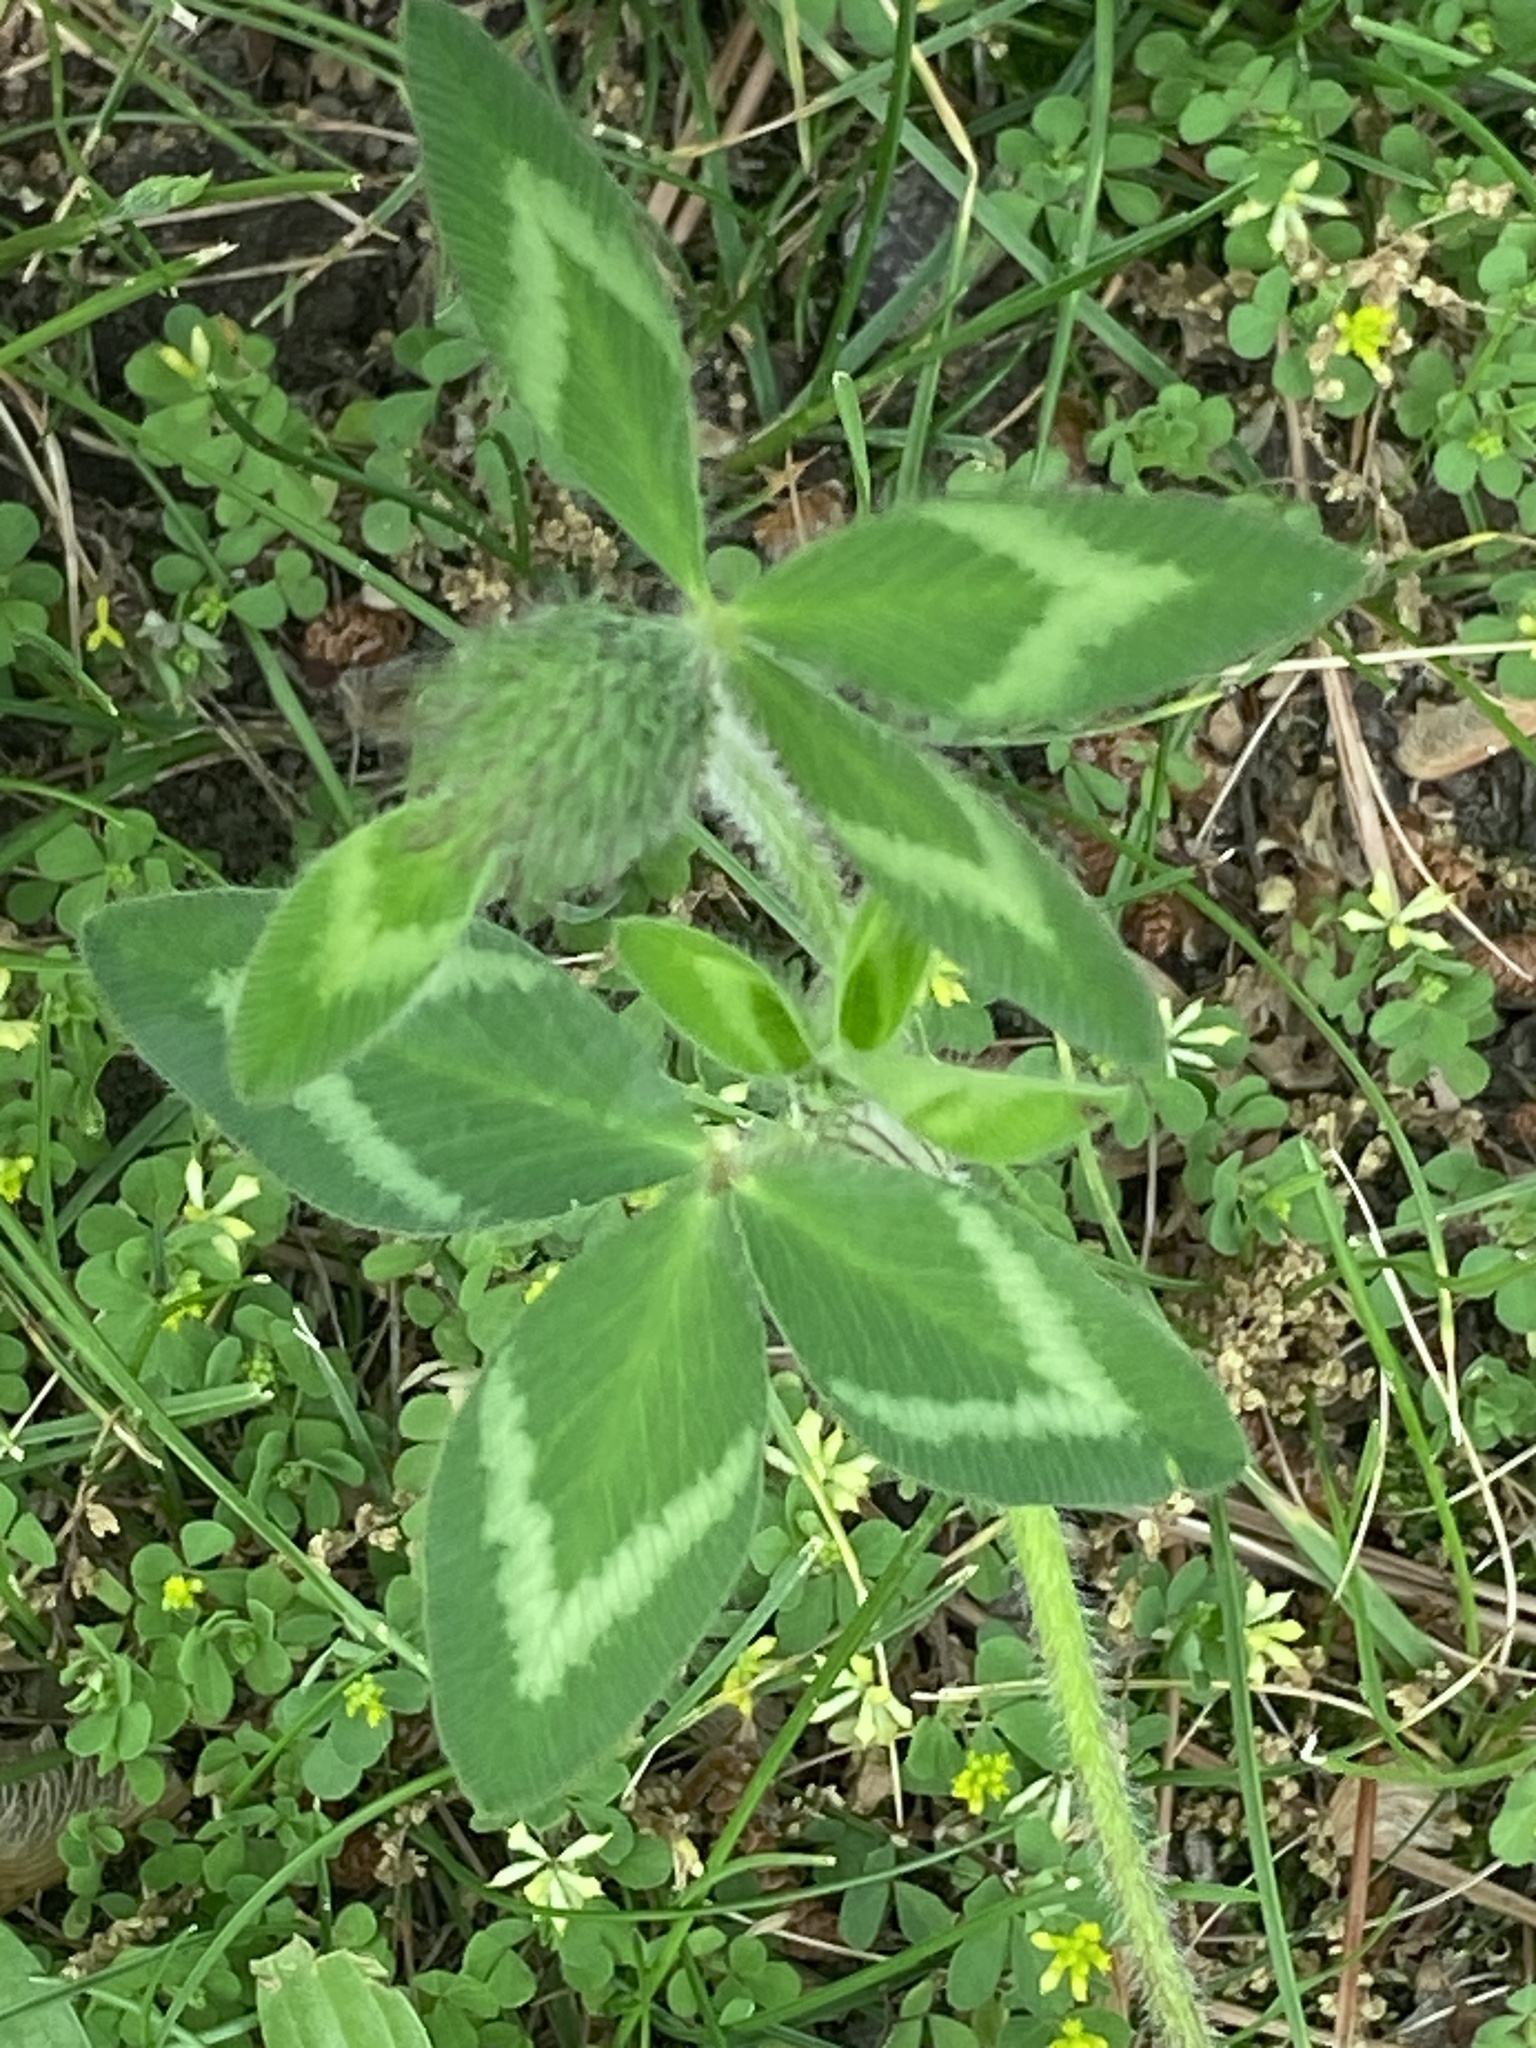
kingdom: Plantae
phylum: Tracheophyta
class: Magnoliopsida
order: Fabales
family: Fabaceae
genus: Trifolium
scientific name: Trifolium pratense
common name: Red clover
